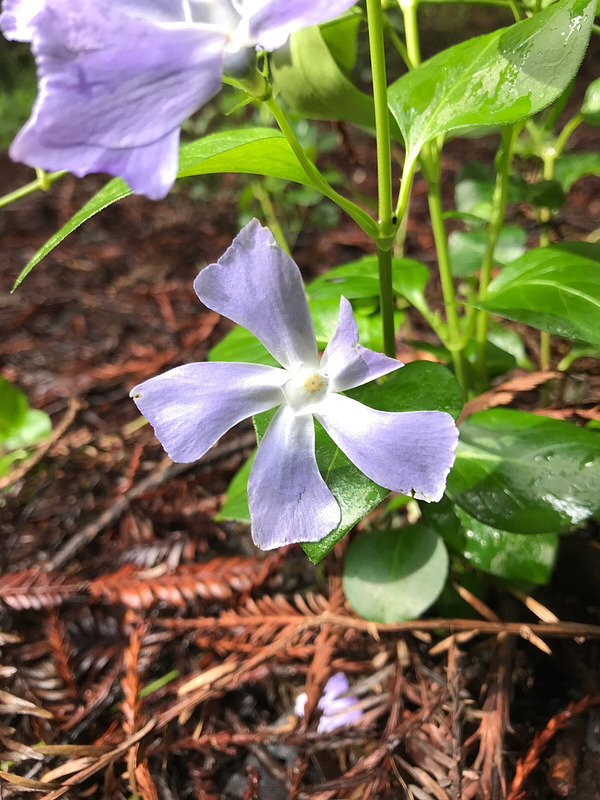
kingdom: Plantae
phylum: Tracheophyta
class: Magnoliopsida
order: Gentianales
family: Apocynaceae
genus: Vinca
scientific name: Vinca major
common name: Greater periwinkle
